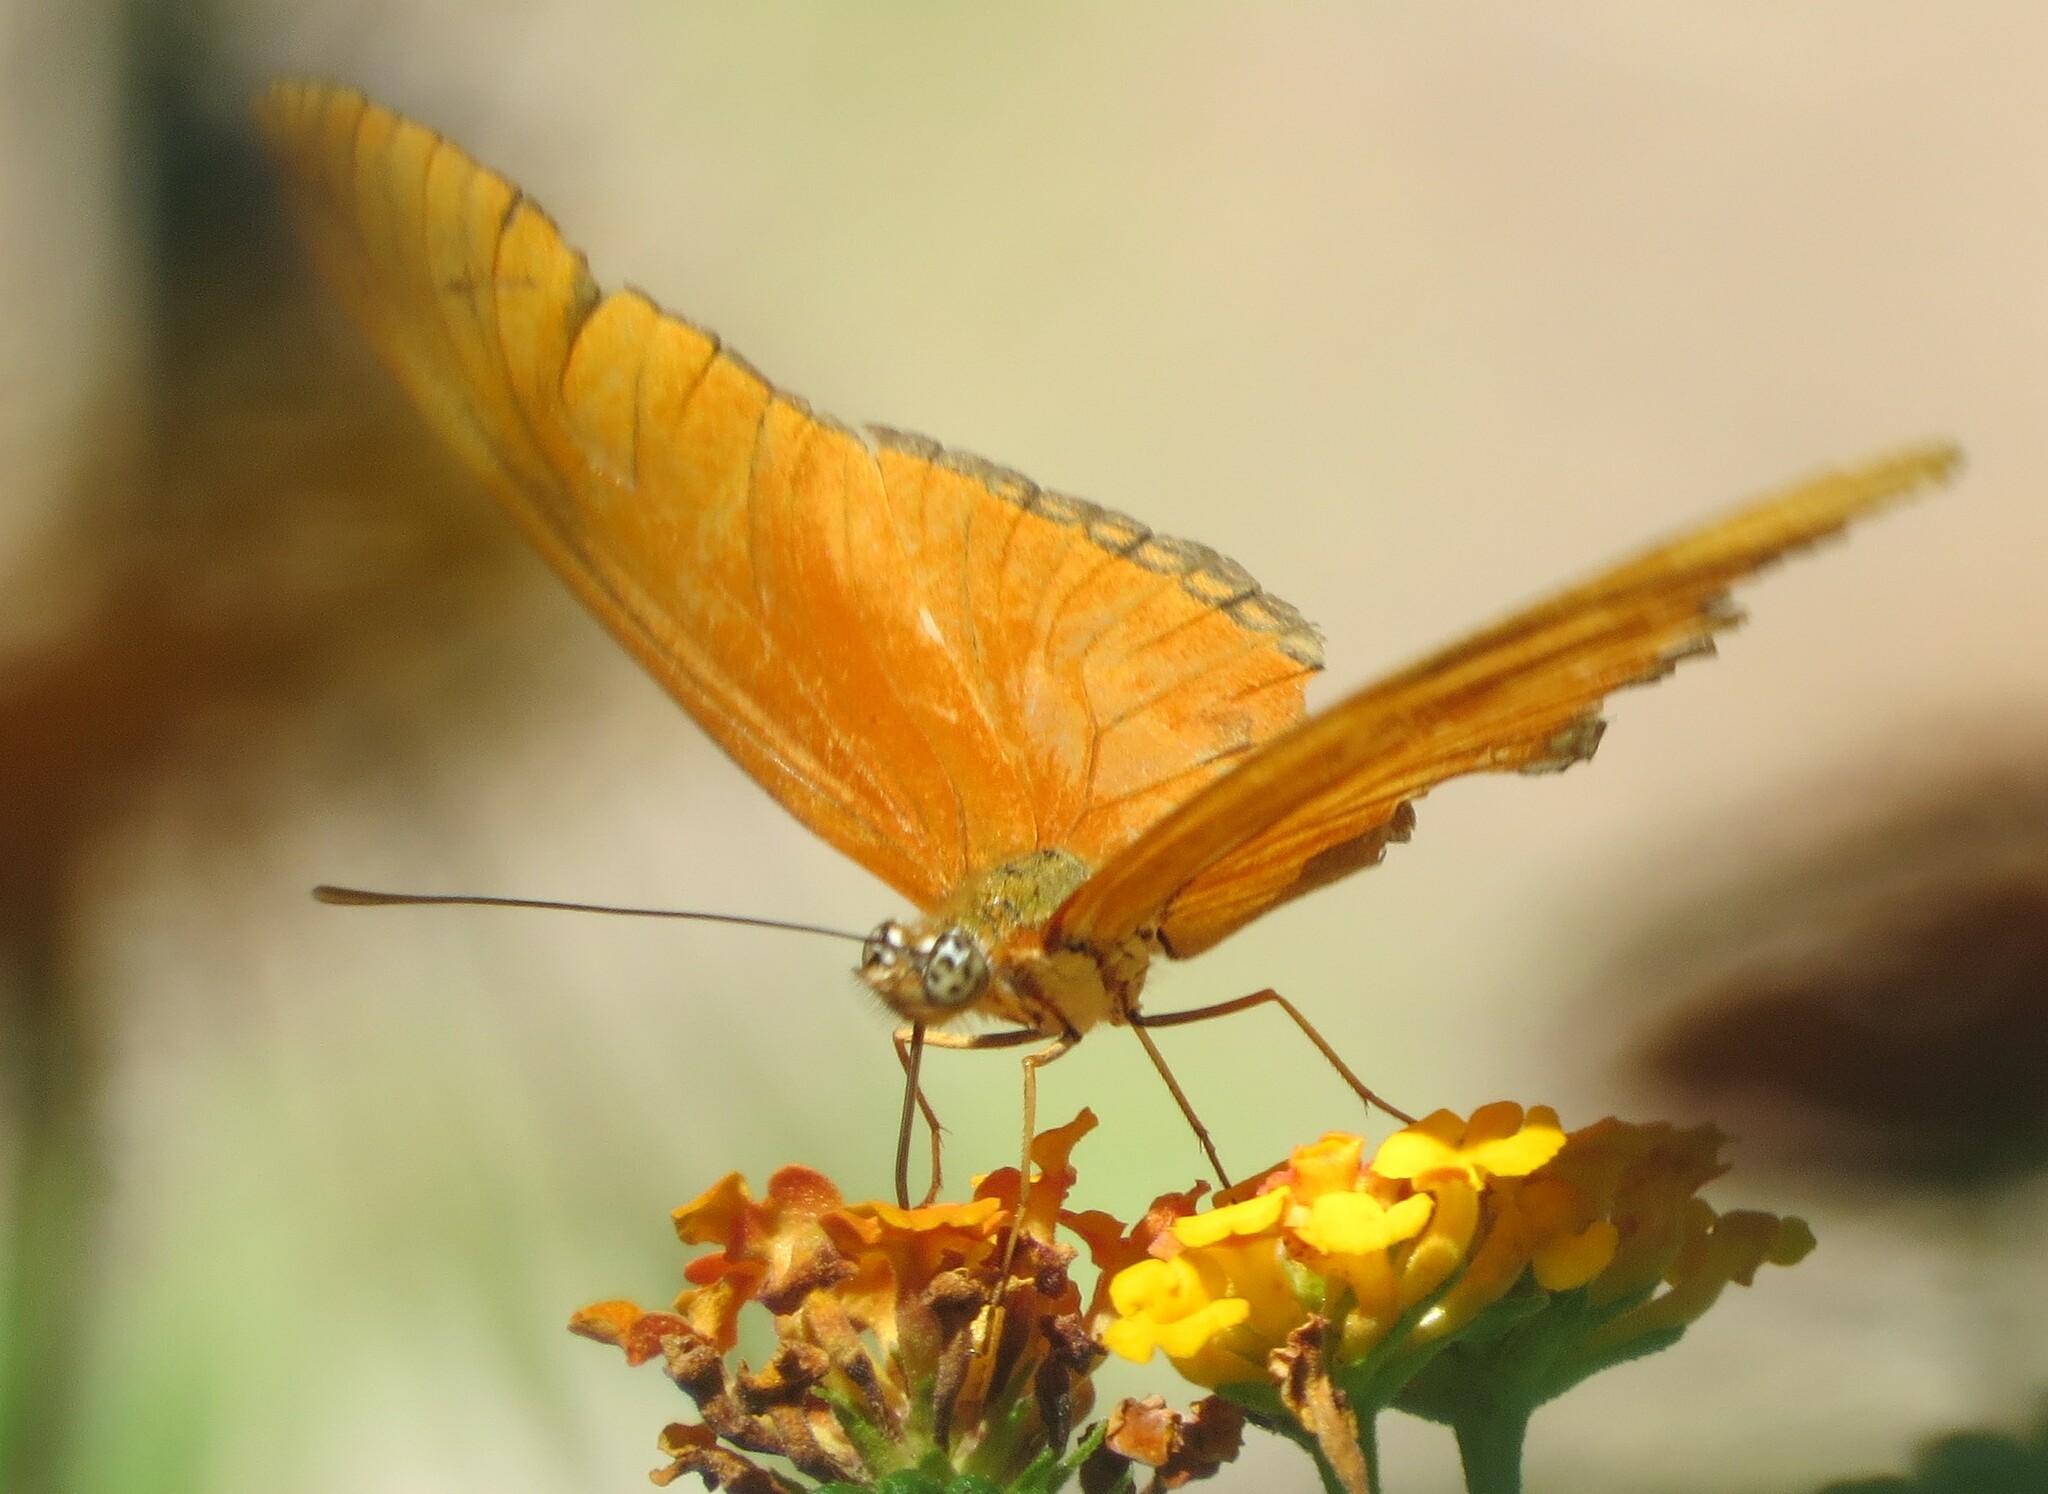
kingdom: Animalia
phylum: Arthropoda
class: Insecta
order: Lepidoptera
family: Nymphalidae
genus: Dryas
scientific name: Dryas iulia
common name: Flambeau
